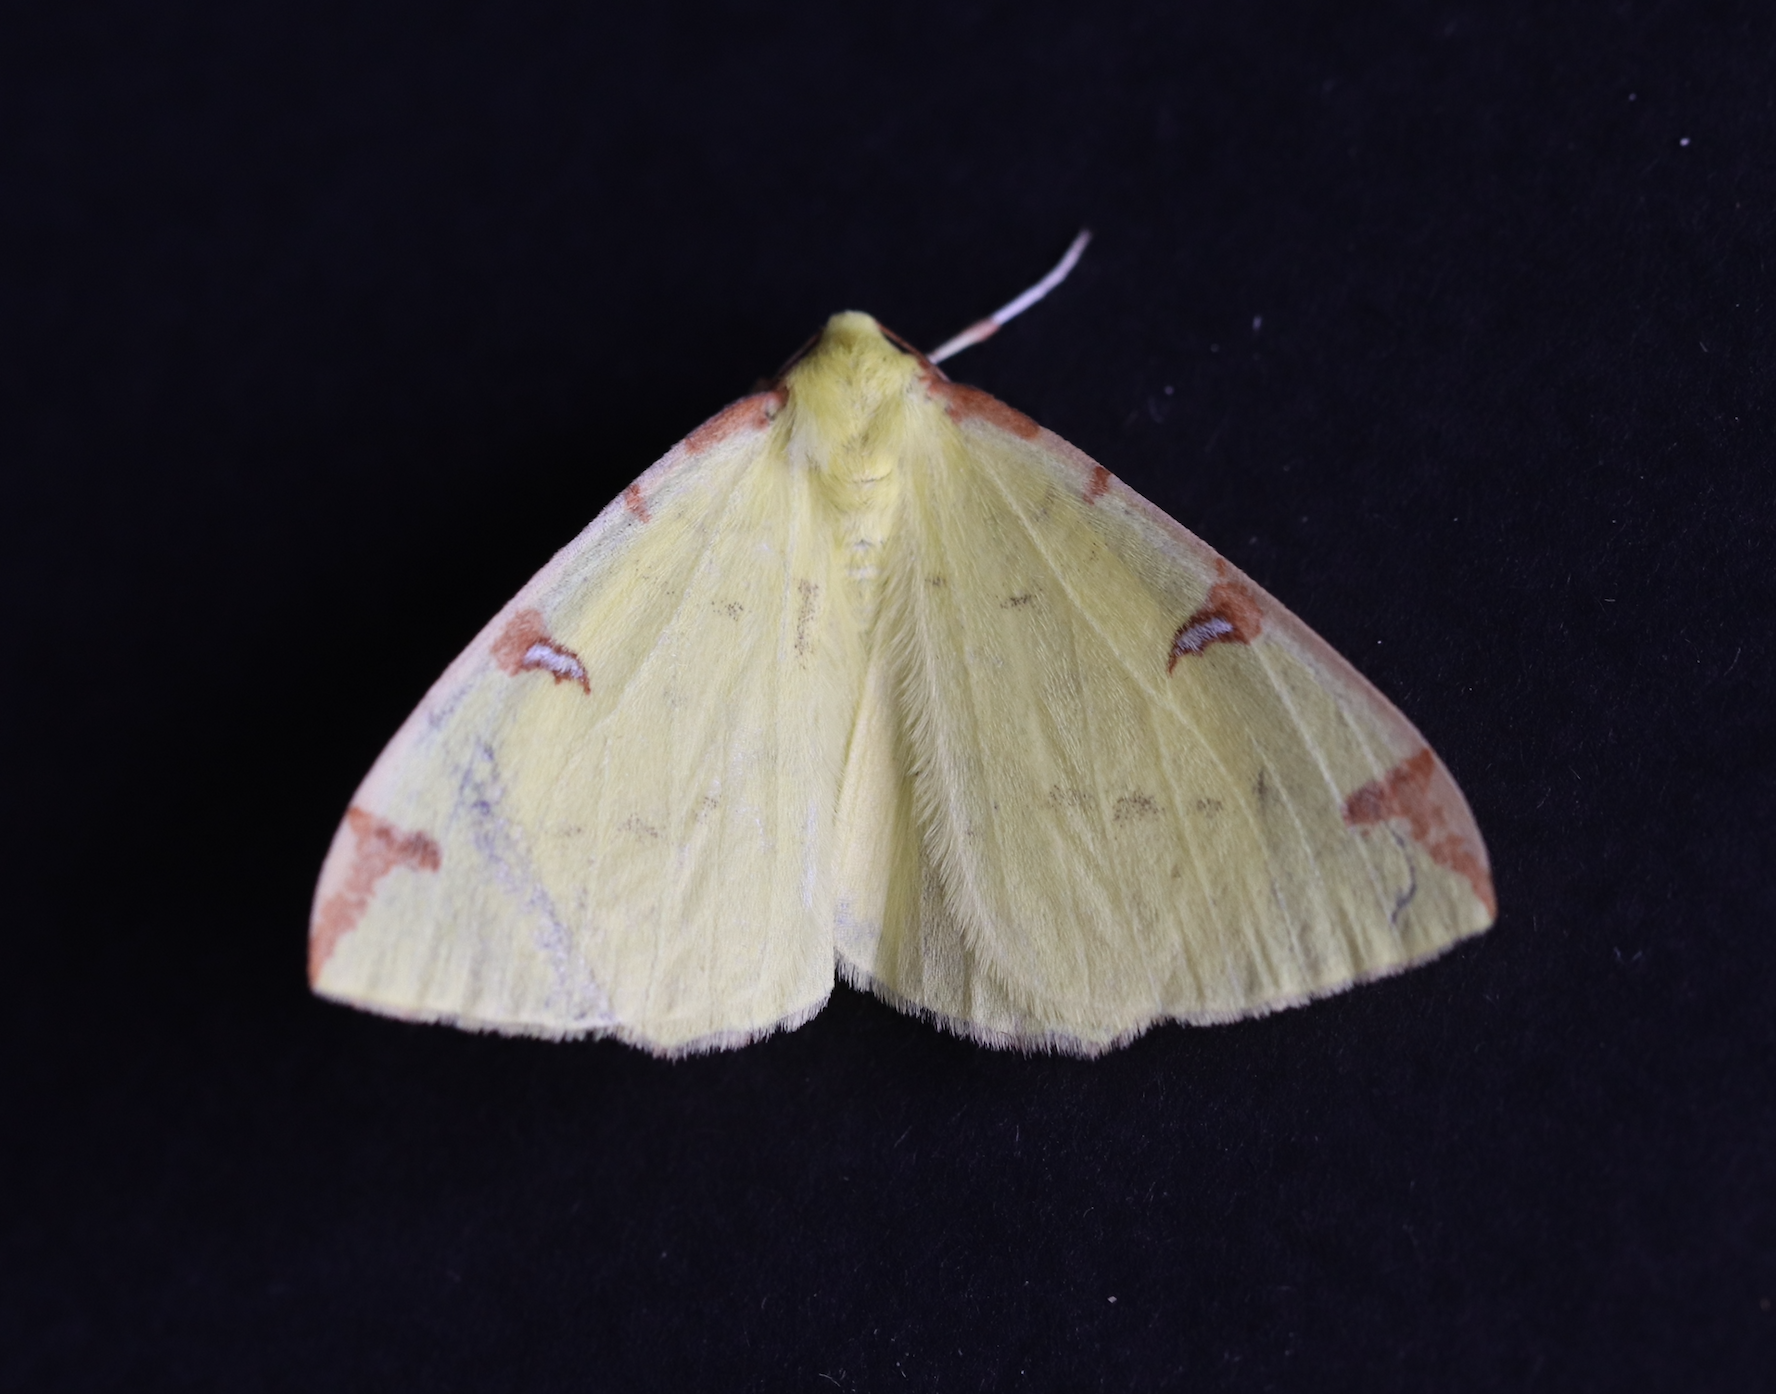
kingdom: Animalia
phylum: Arthropoda
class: Insecta
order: Lepidoptera
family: Geometridae
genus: Opisthograptis
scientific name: Opisthograptis luteolata
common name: Brimstone moth
